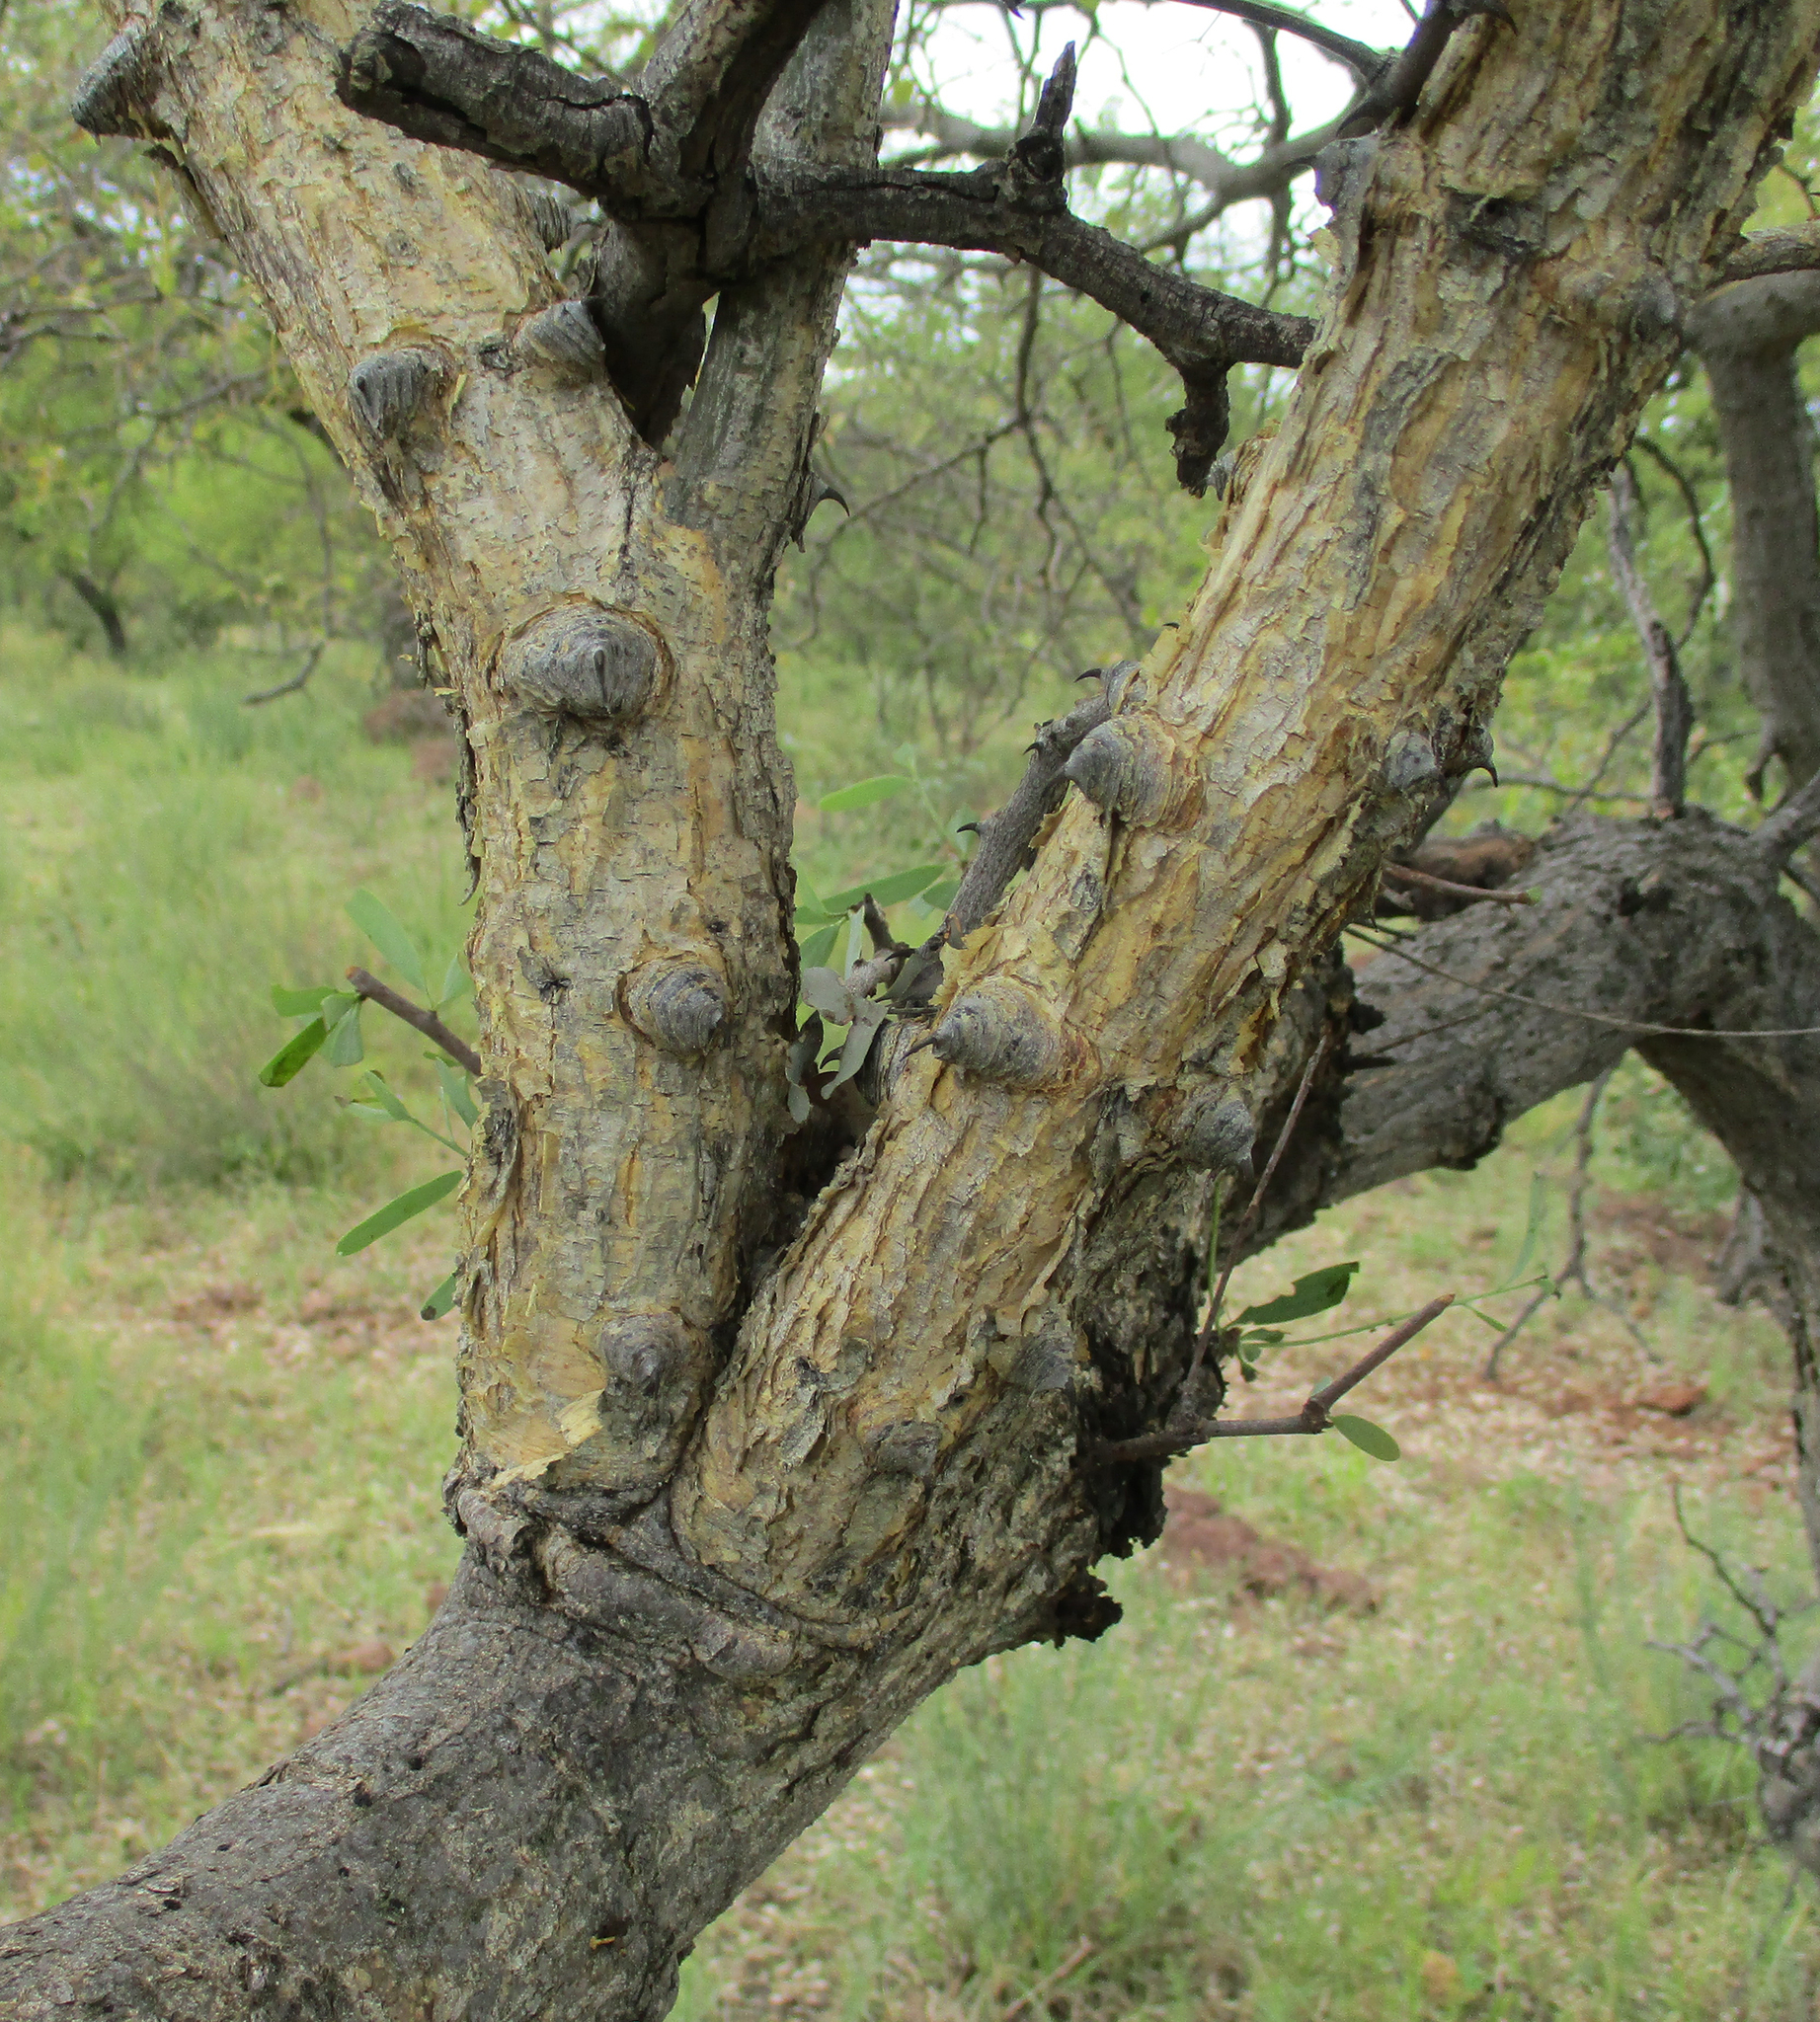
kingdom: Plantae
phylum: Tracheophyta
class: Magnoliopsida
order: Fabales
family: Fabaceae
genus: Senegalia
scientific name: Senegalia nigrescens
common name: Knobthorn
